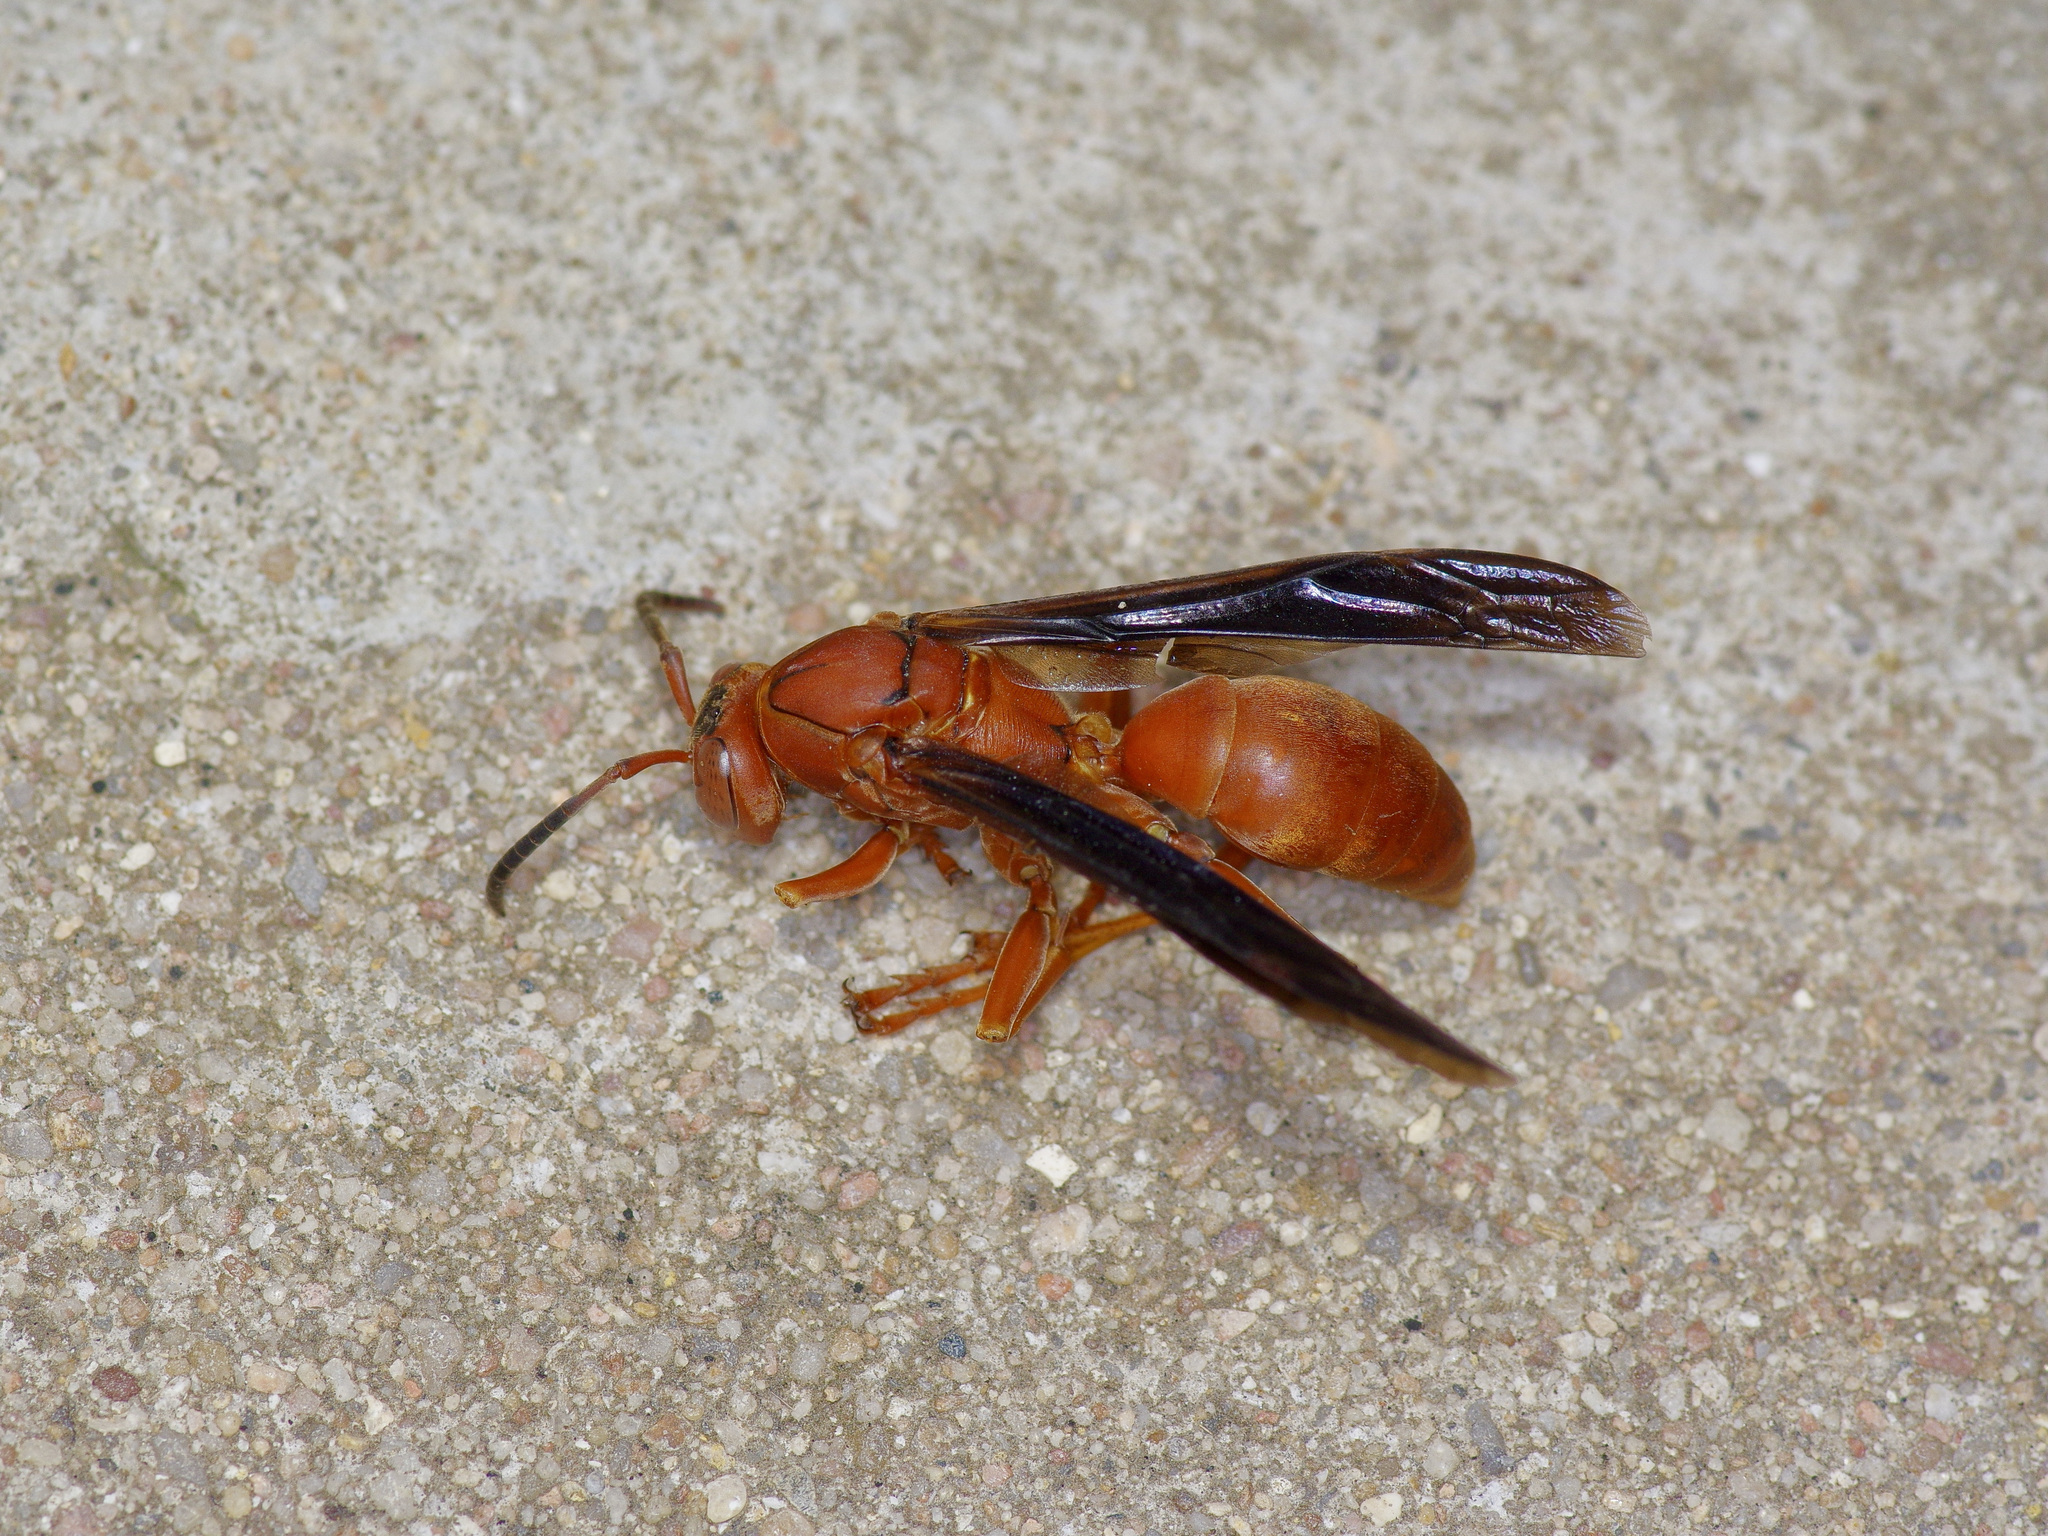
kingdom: Animalia
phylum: Arthropoda
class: Insecta
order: Hymenoptera
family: Eumenidae
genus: Polistes
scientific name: Polistes carolina
